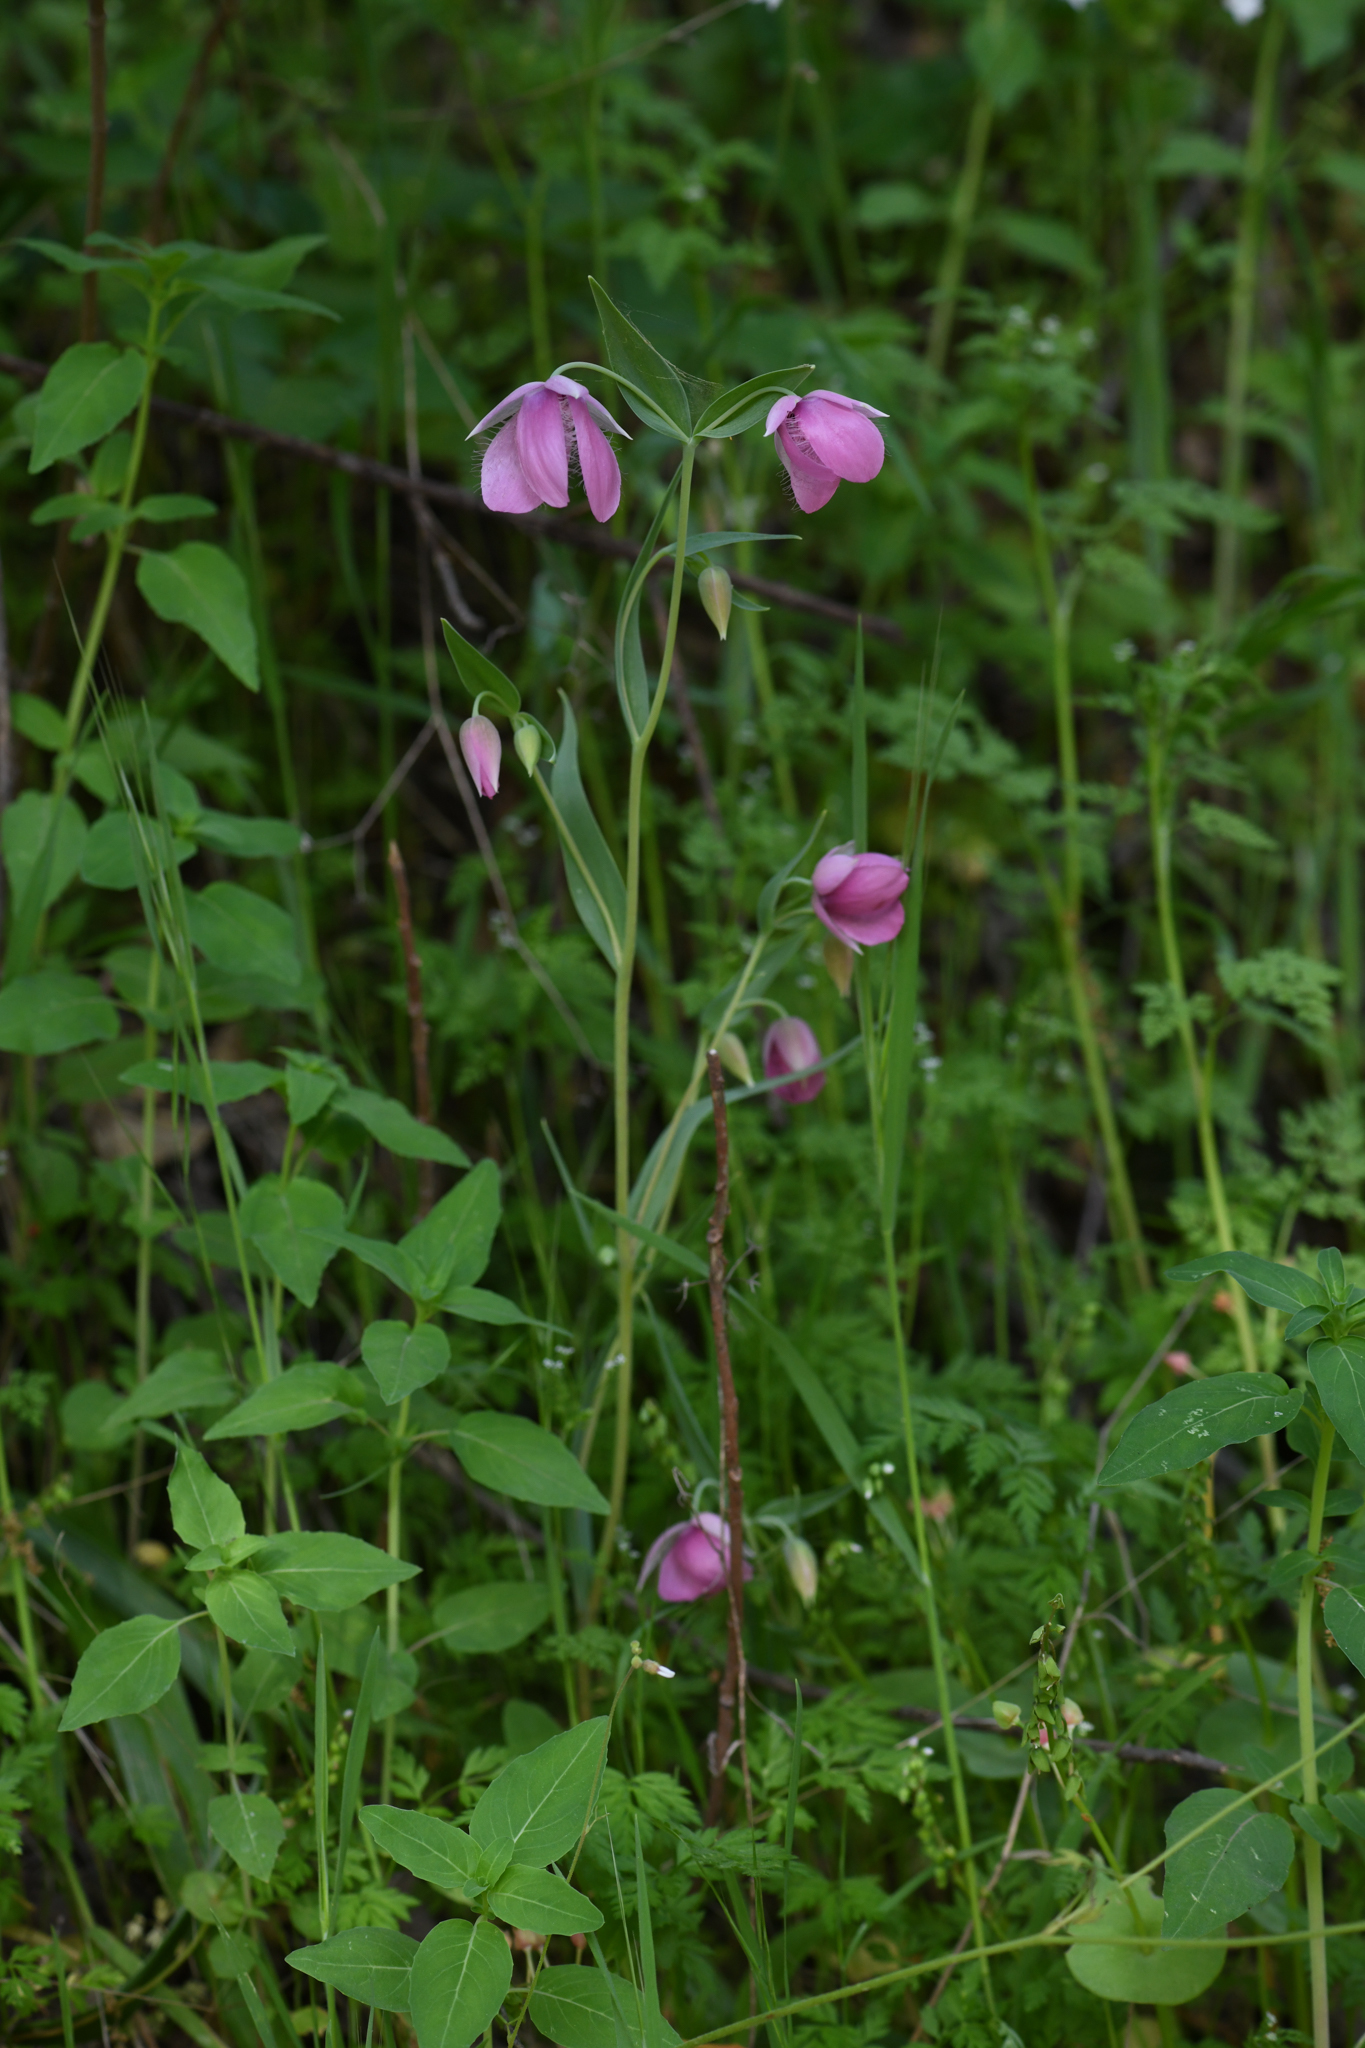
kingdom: Plantae
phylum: Tracheophyta
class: Liliopsida
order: Liliales
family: Liliaceae
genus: Calochortus
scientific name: Calochortus amoenus
